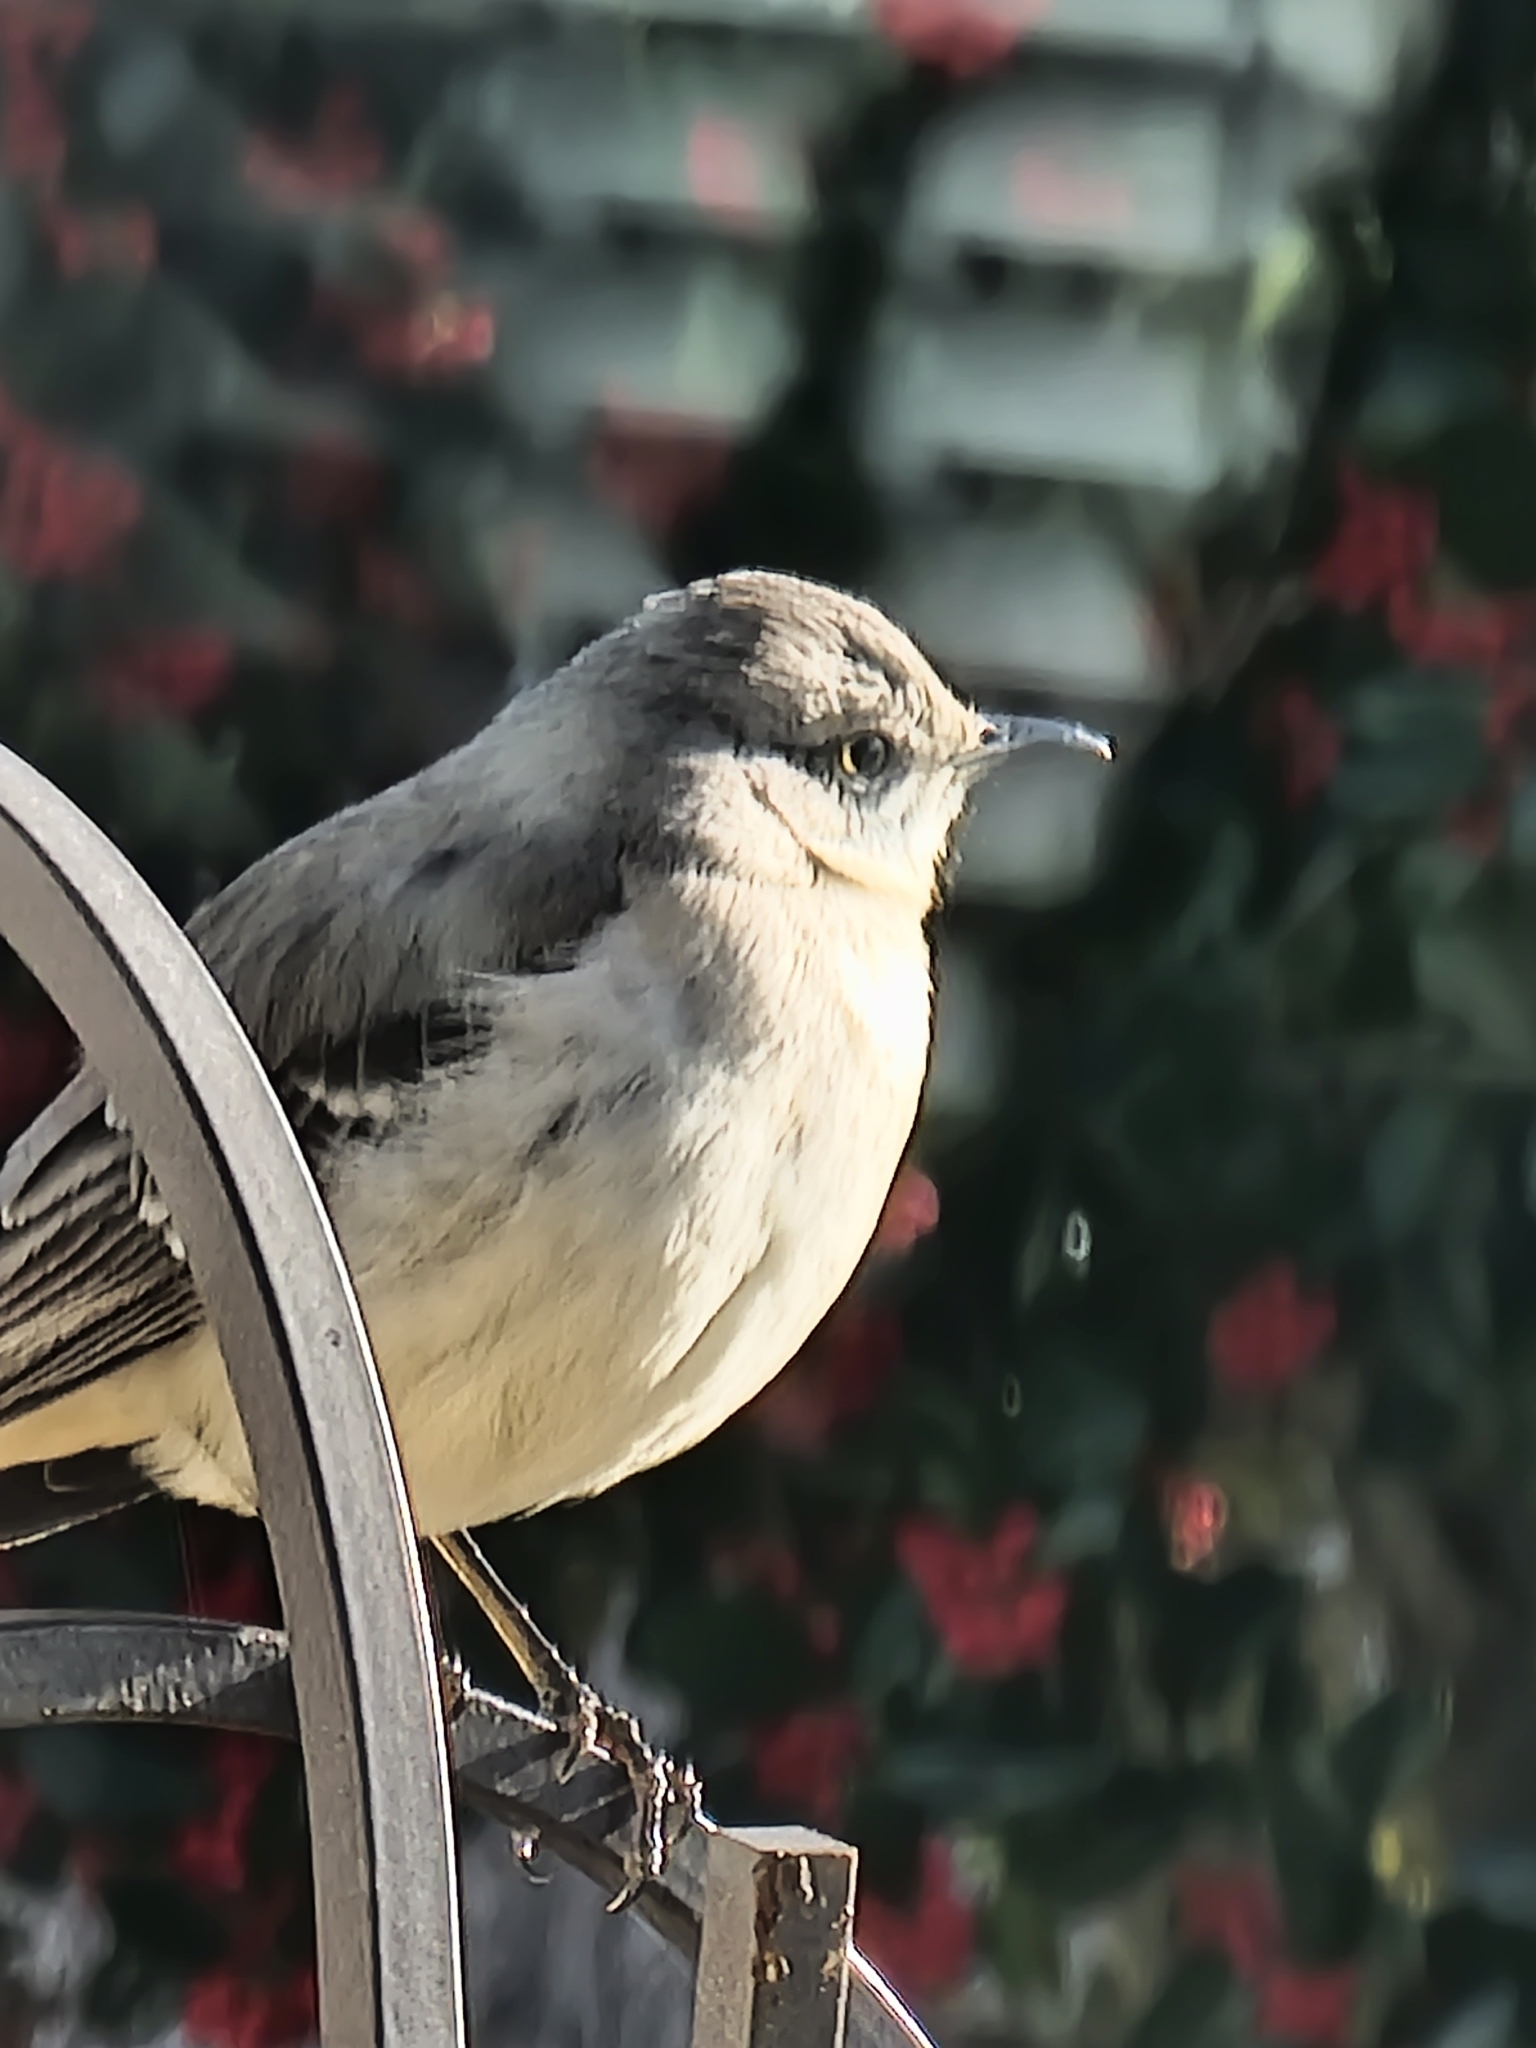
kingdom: Animalia
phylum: Chordata
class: Aves
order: Passeriformes
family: Mimidae
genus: Mimus
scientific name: Mimus polyglottos
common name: Northern mockingbird
